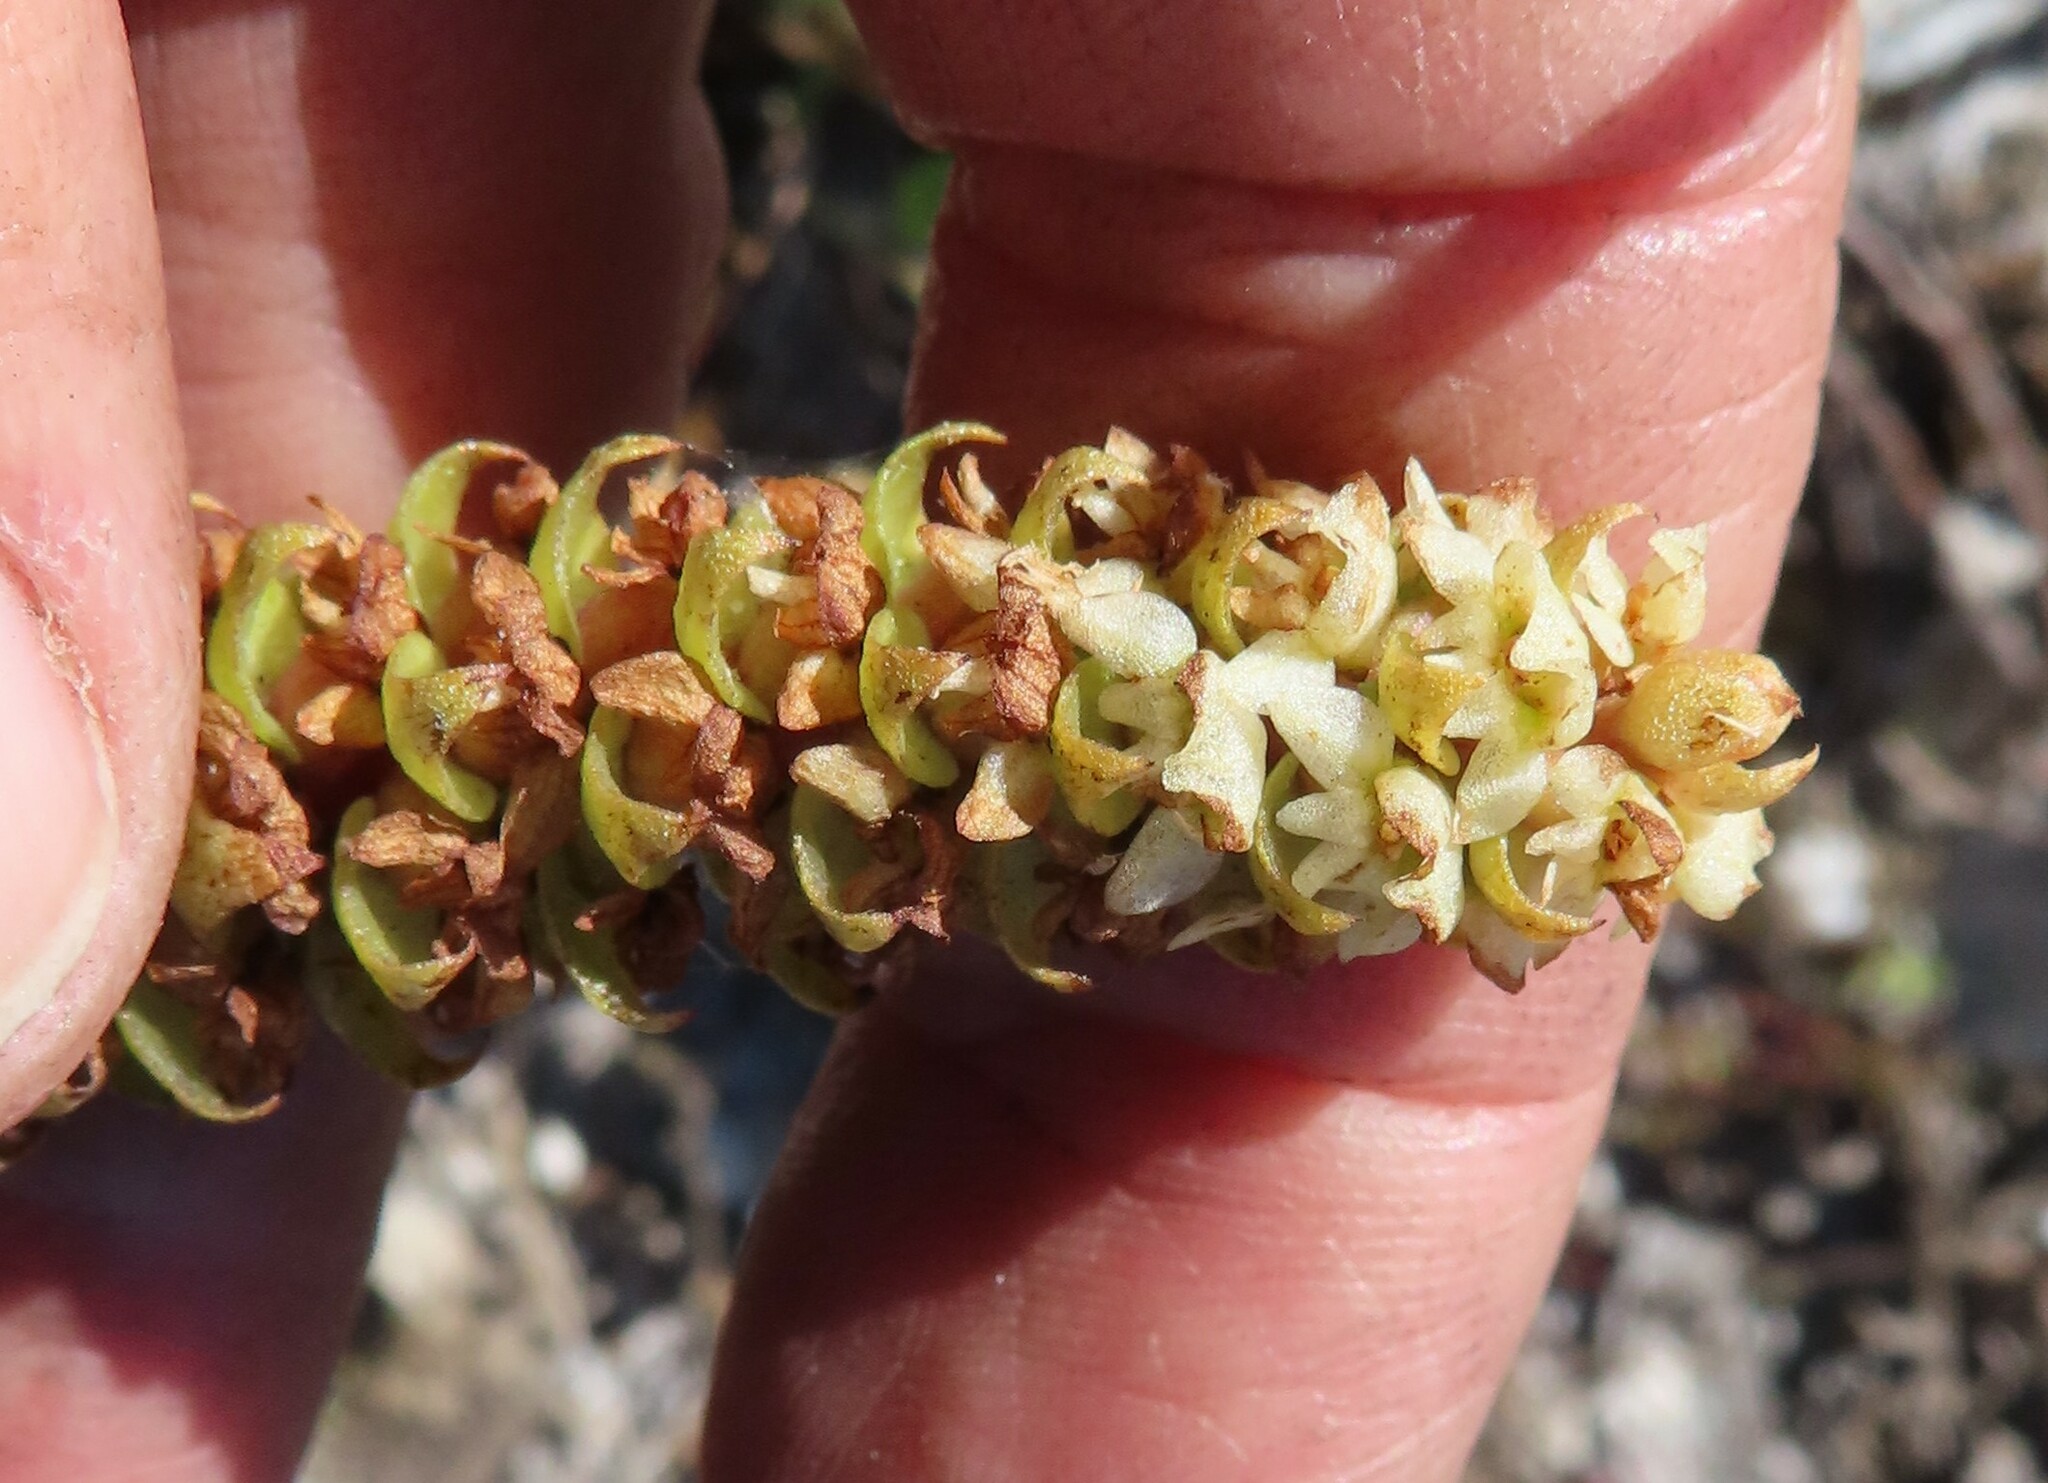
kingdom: Plantae
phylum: Tracheophyta
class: Liliopsida
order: Asparagales
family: Orchidaceae
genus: Satyrium
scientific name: Satyrium bicallosum
